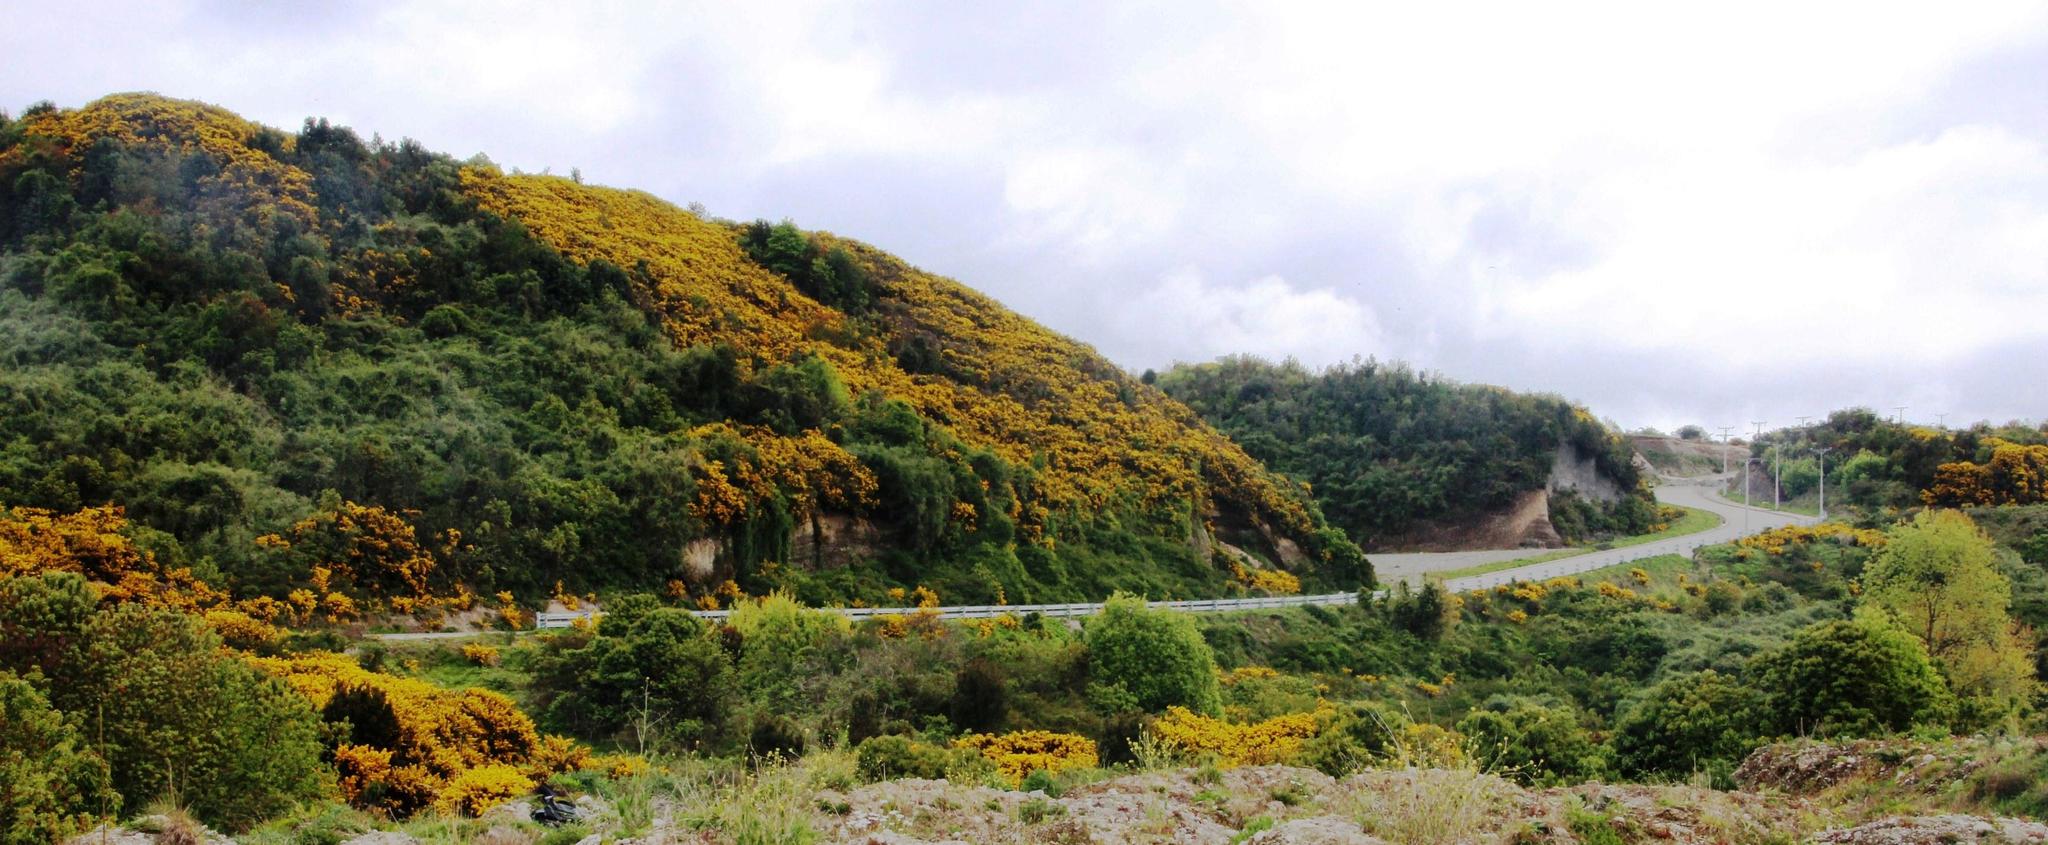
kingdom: Plantae
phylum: Tracheophyta
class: Magnoliopsida
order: Fabales
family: Fabaceae
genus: Ulex
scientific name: Ulex europaeus
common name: Common gorse
